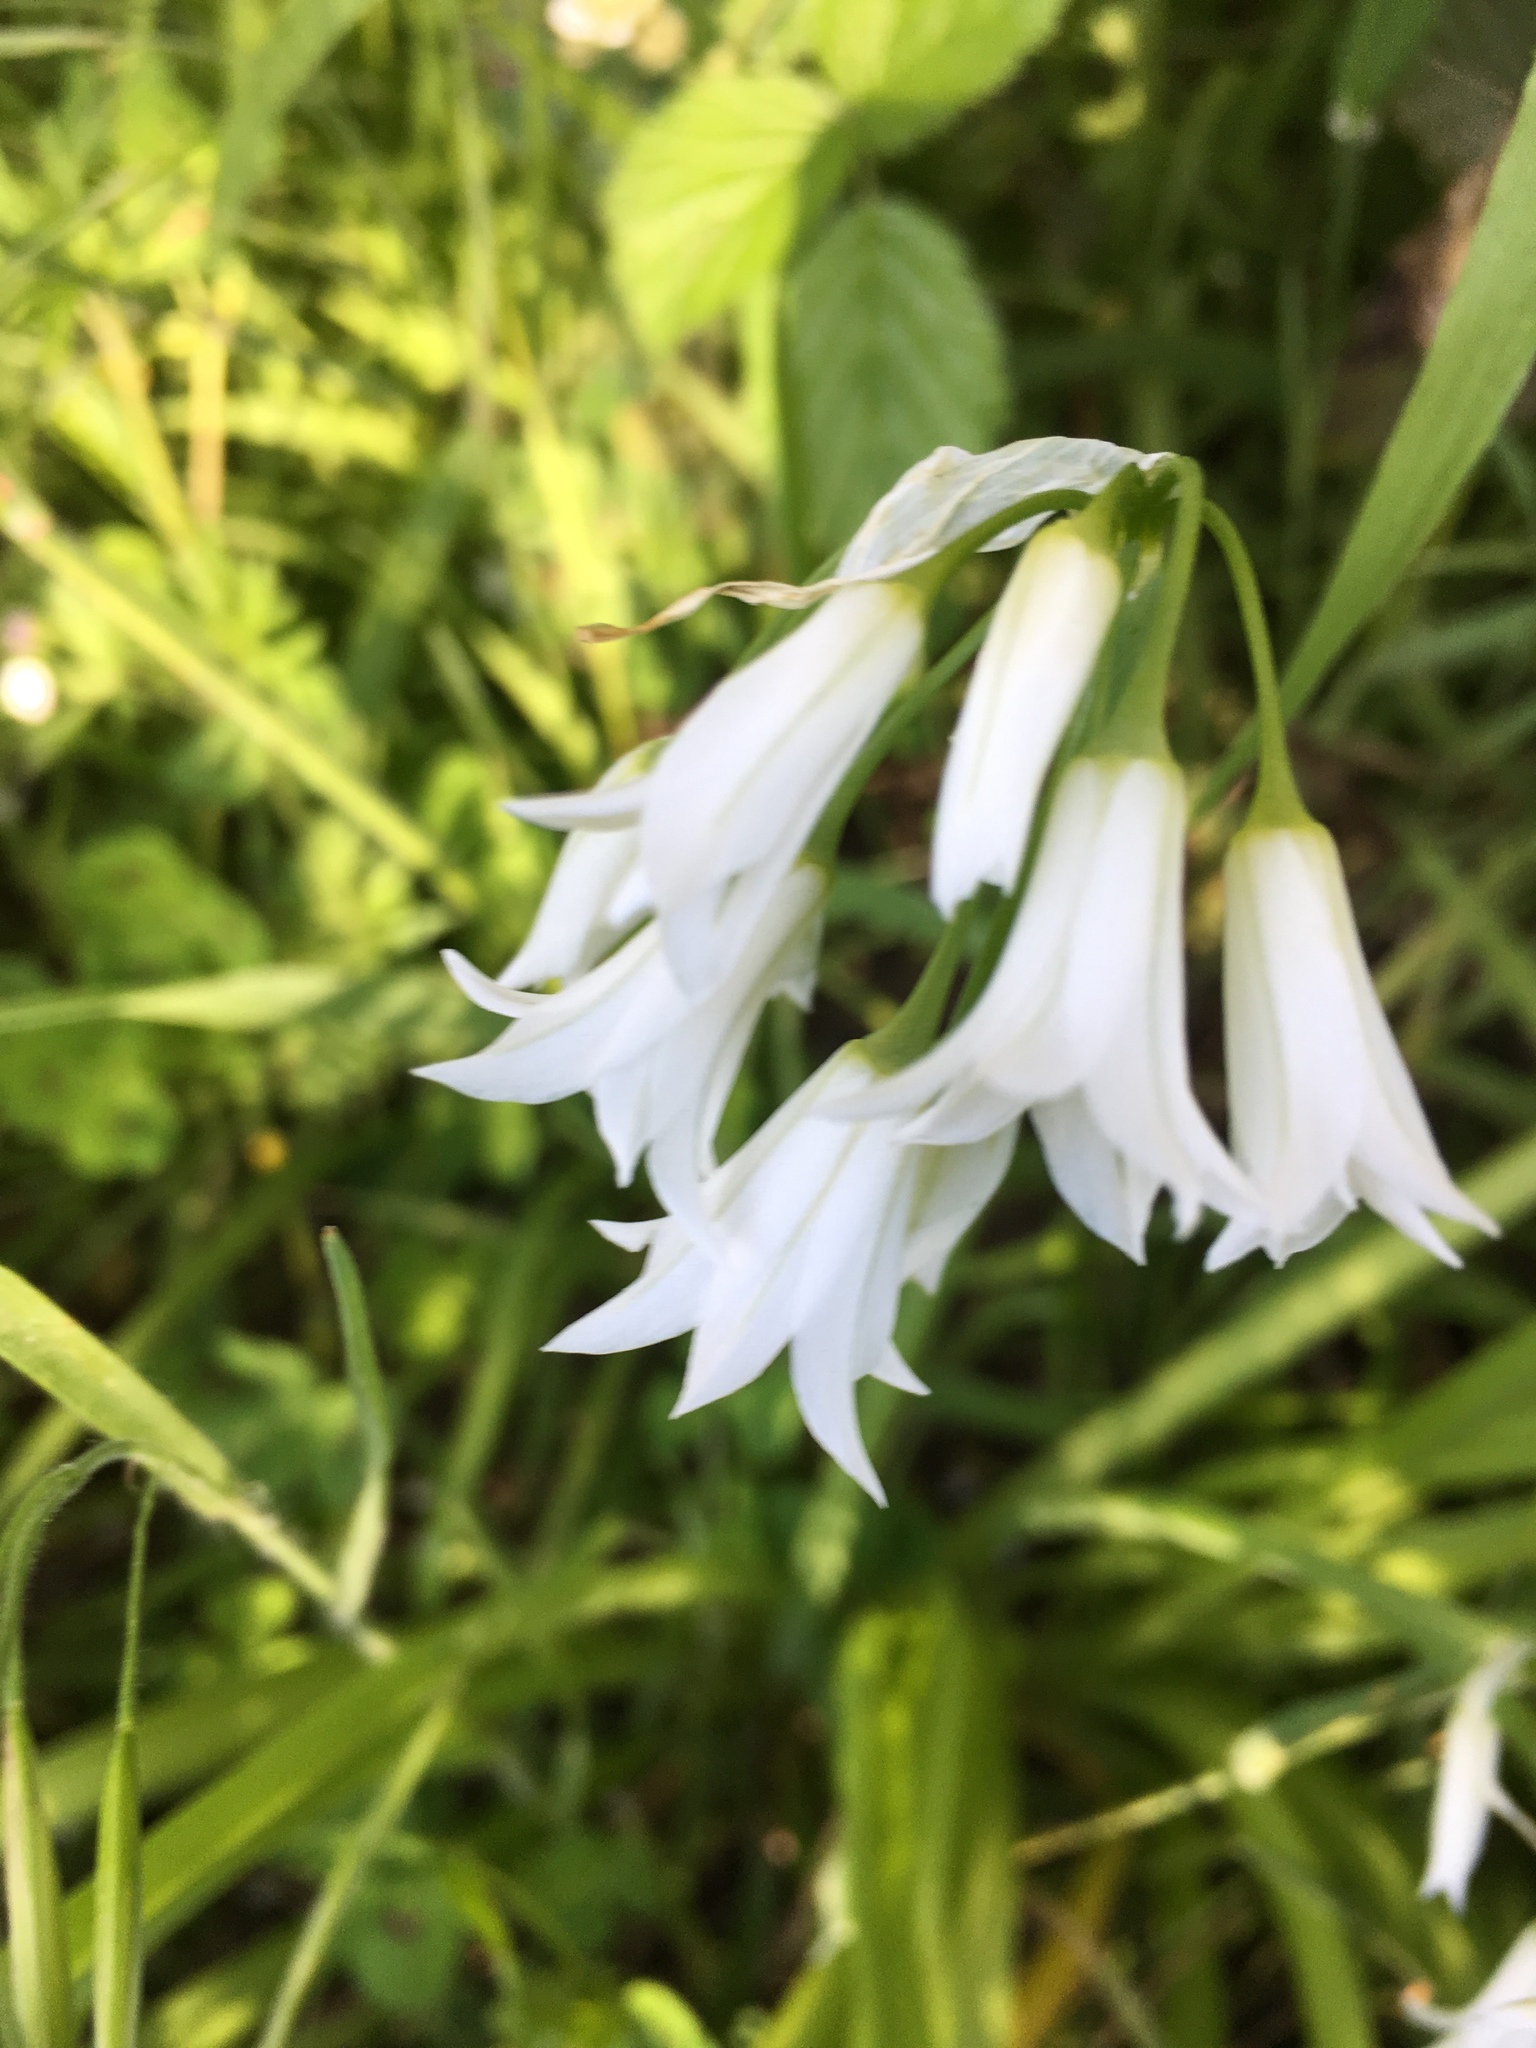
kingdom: Plantae
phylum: Tracheophyta
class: Liliopsida
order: Asparagales
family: Amaryllidaceae
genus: Allium
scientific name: Allium triquetrum
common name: Three-cornered garlic
